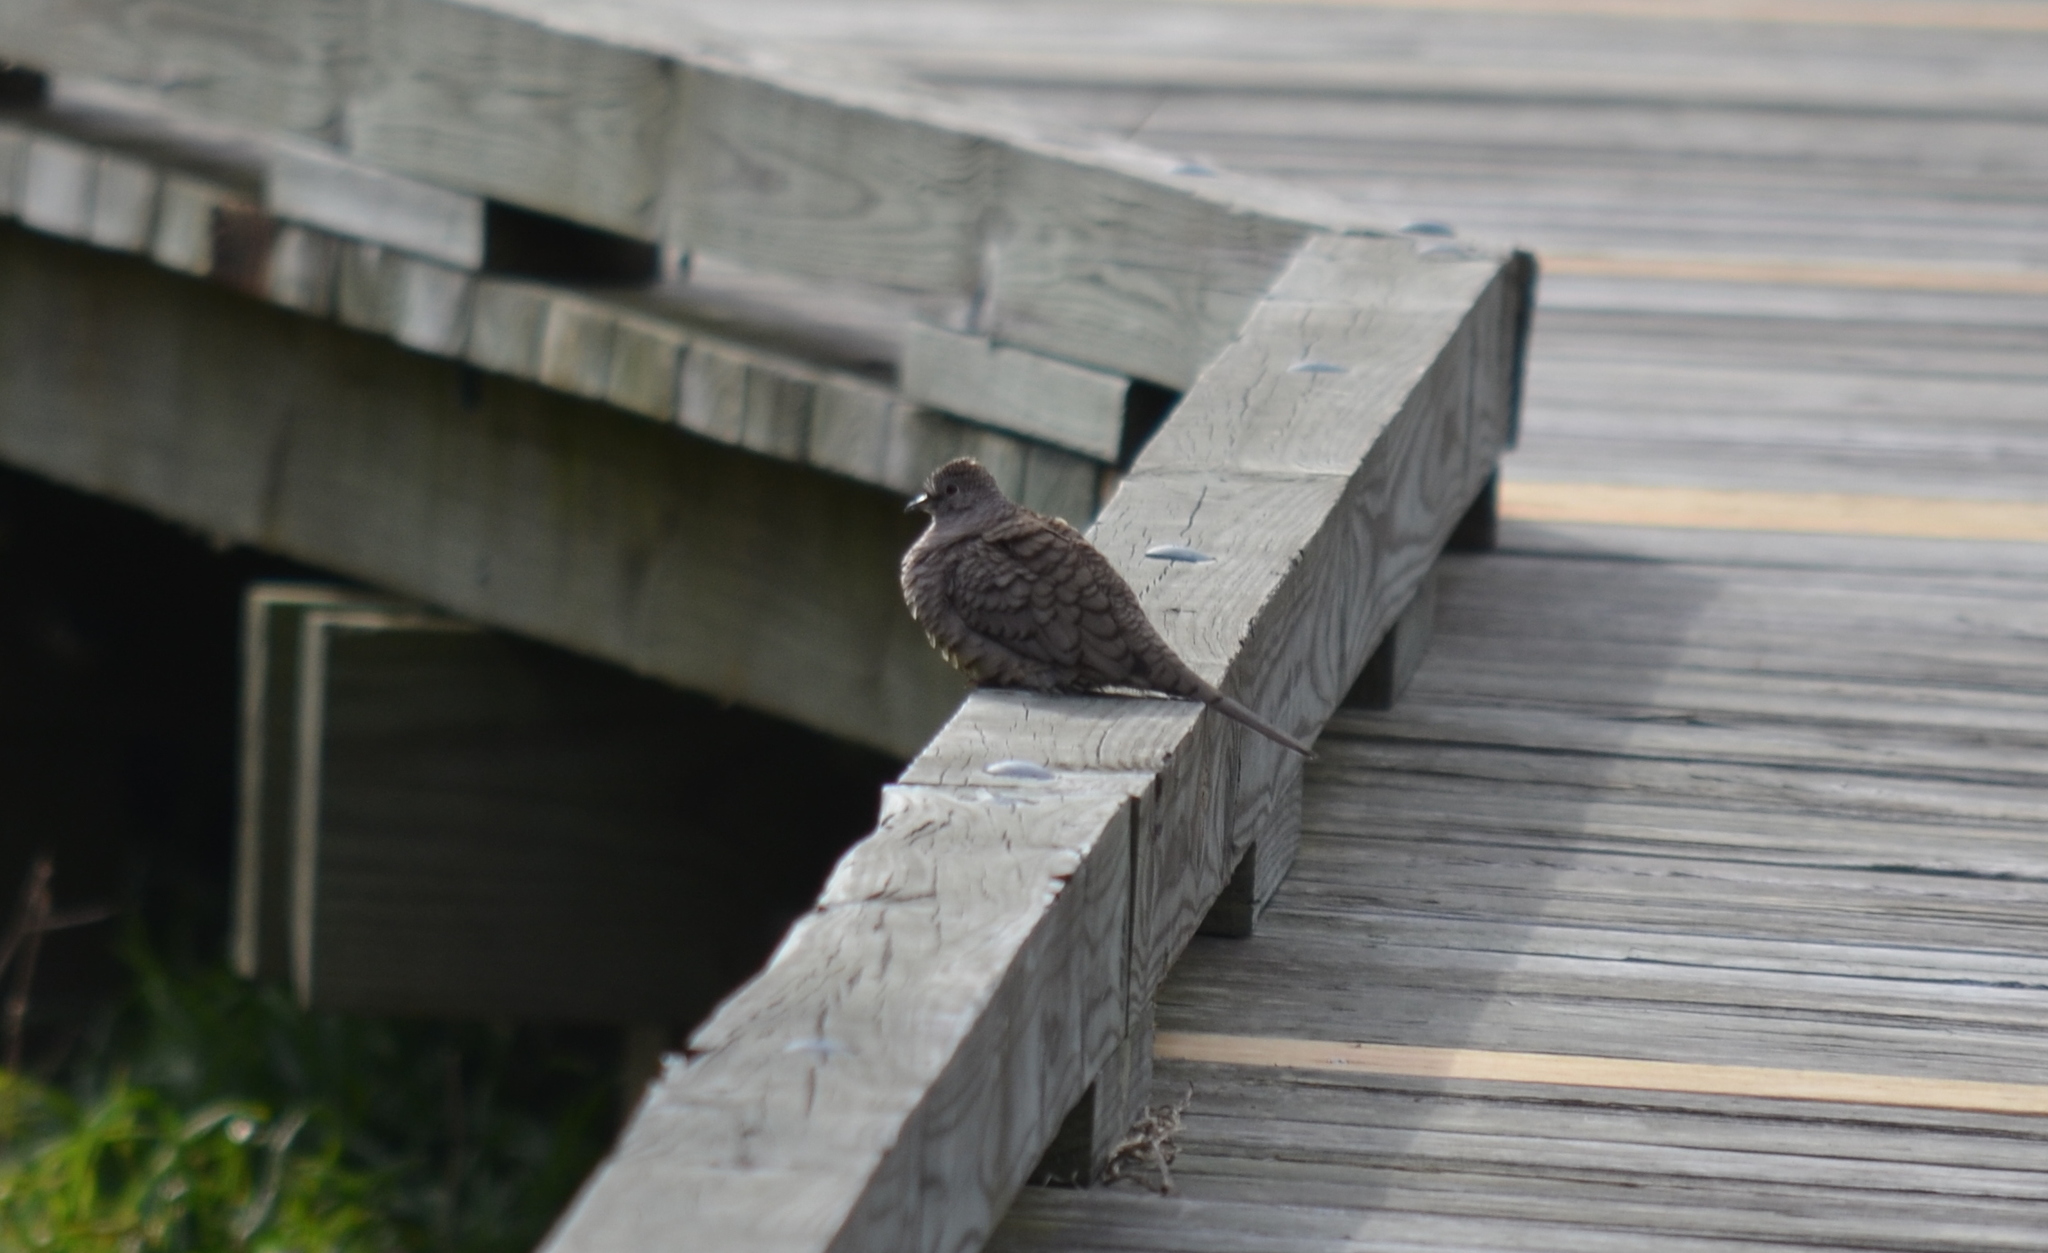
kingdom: Animalia
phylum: Chordata
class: Aves
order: Columbiformes
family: Columbidae
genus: Columbina
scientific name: Columbina inca
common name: Inca dove
